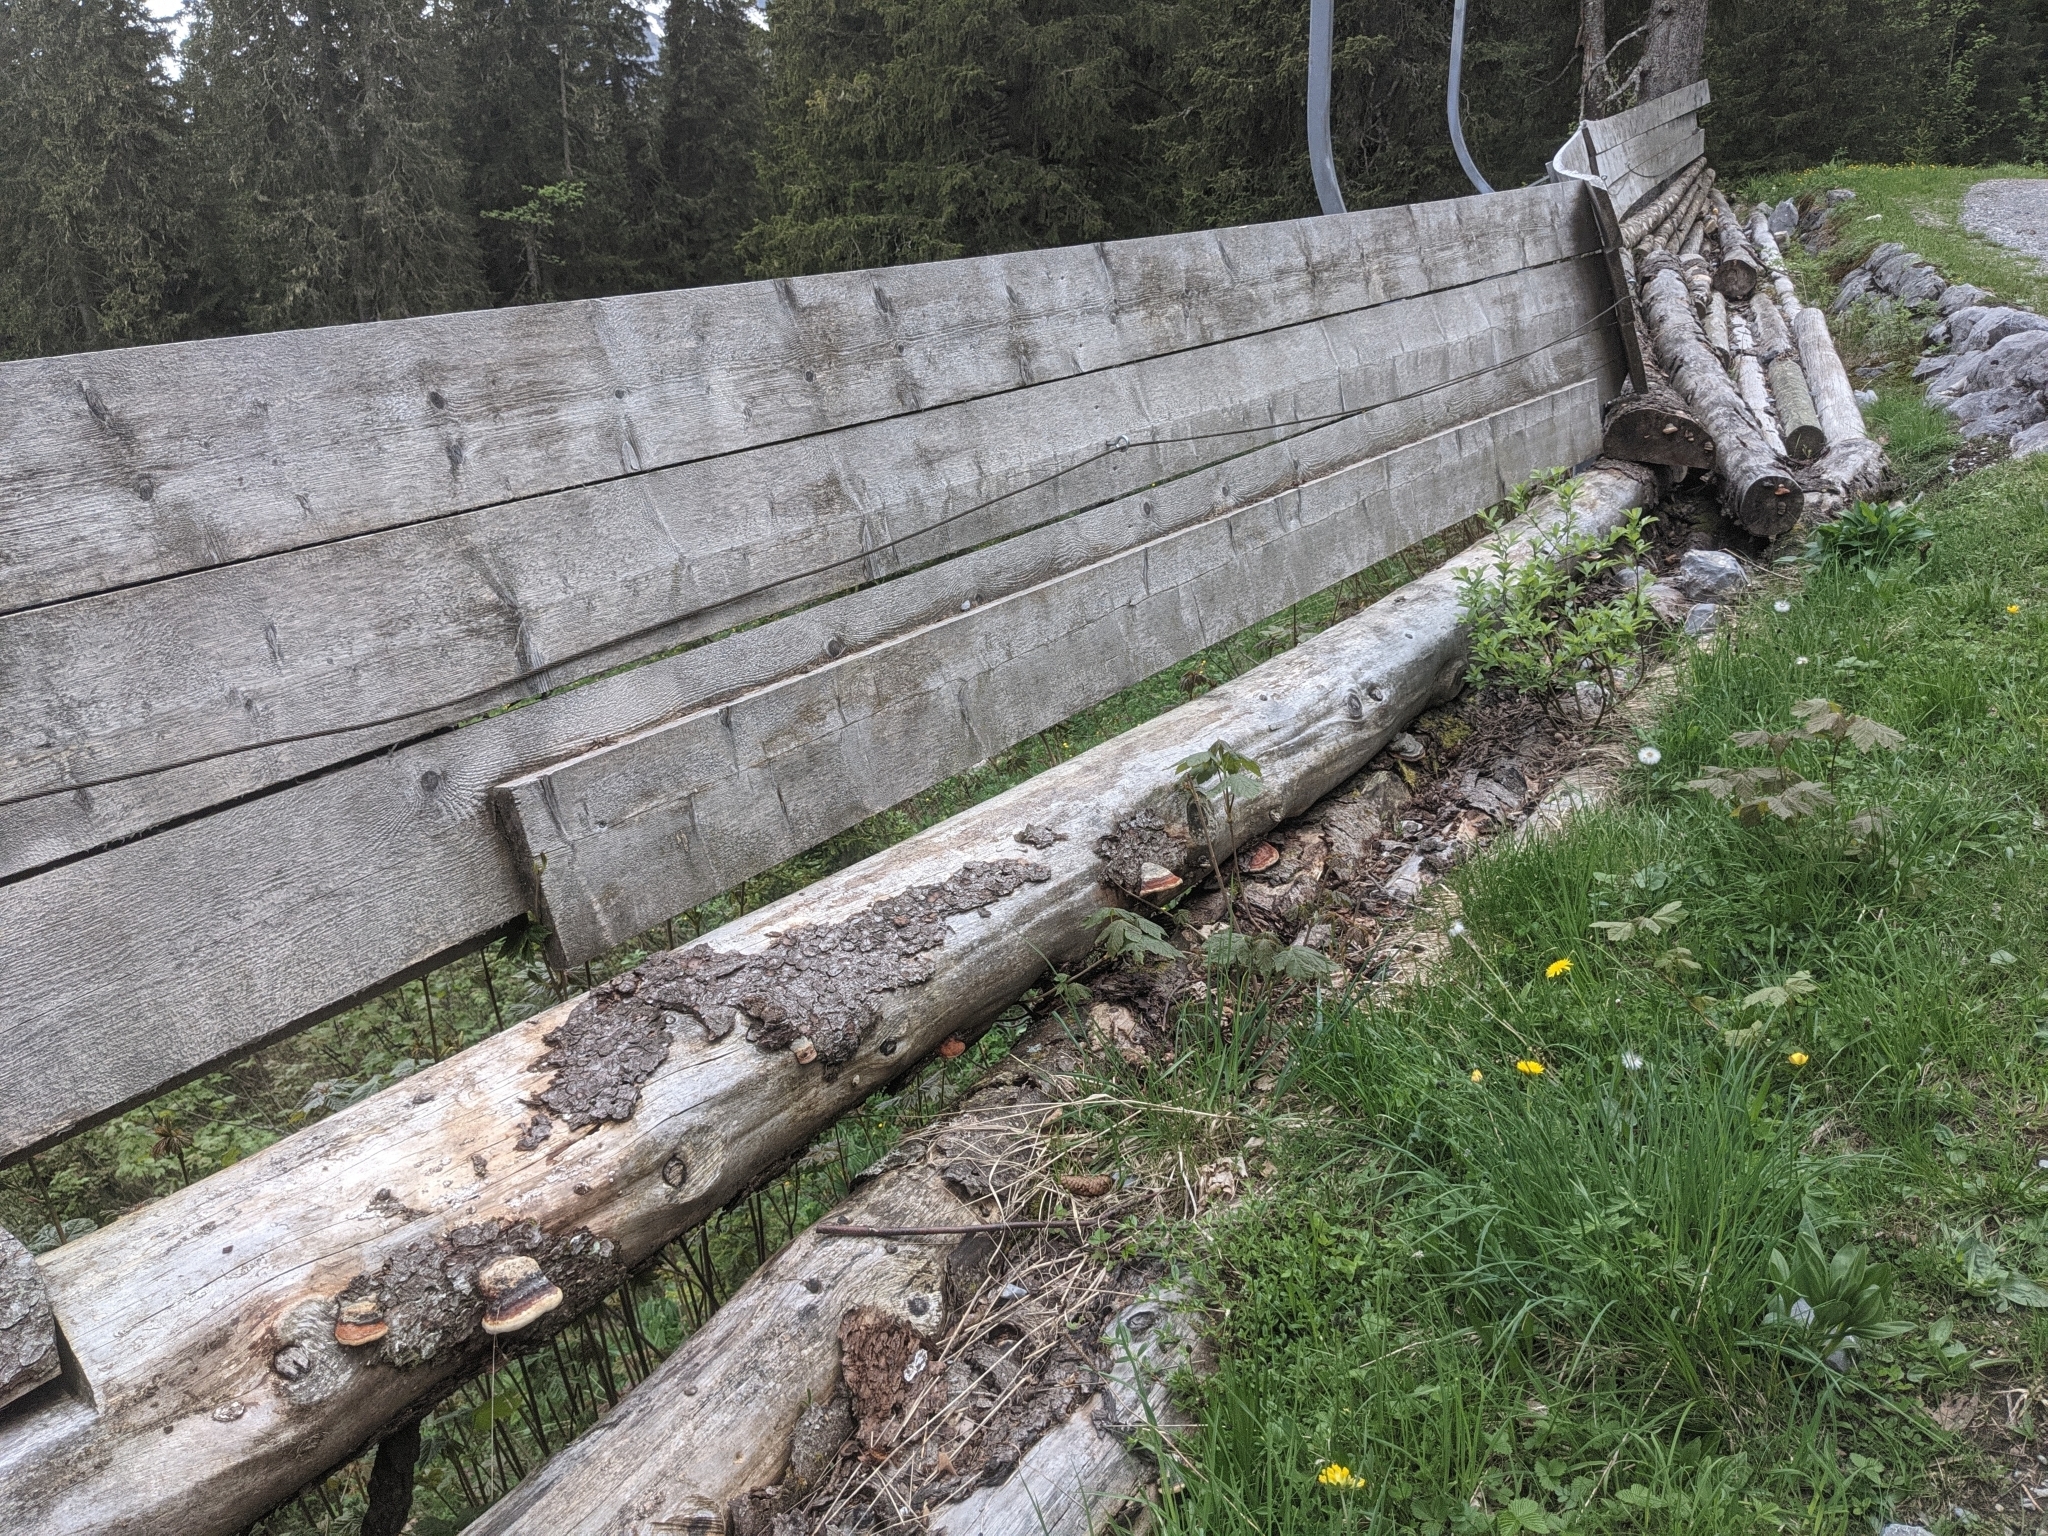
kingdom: Fungi
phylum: Basidiomycota
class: Agaricomycetes
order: Polyporales
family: Fomitopsidaceae
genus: Fomitopsis
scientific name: Fomitopsis pinicola
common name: Red-belted bracket
